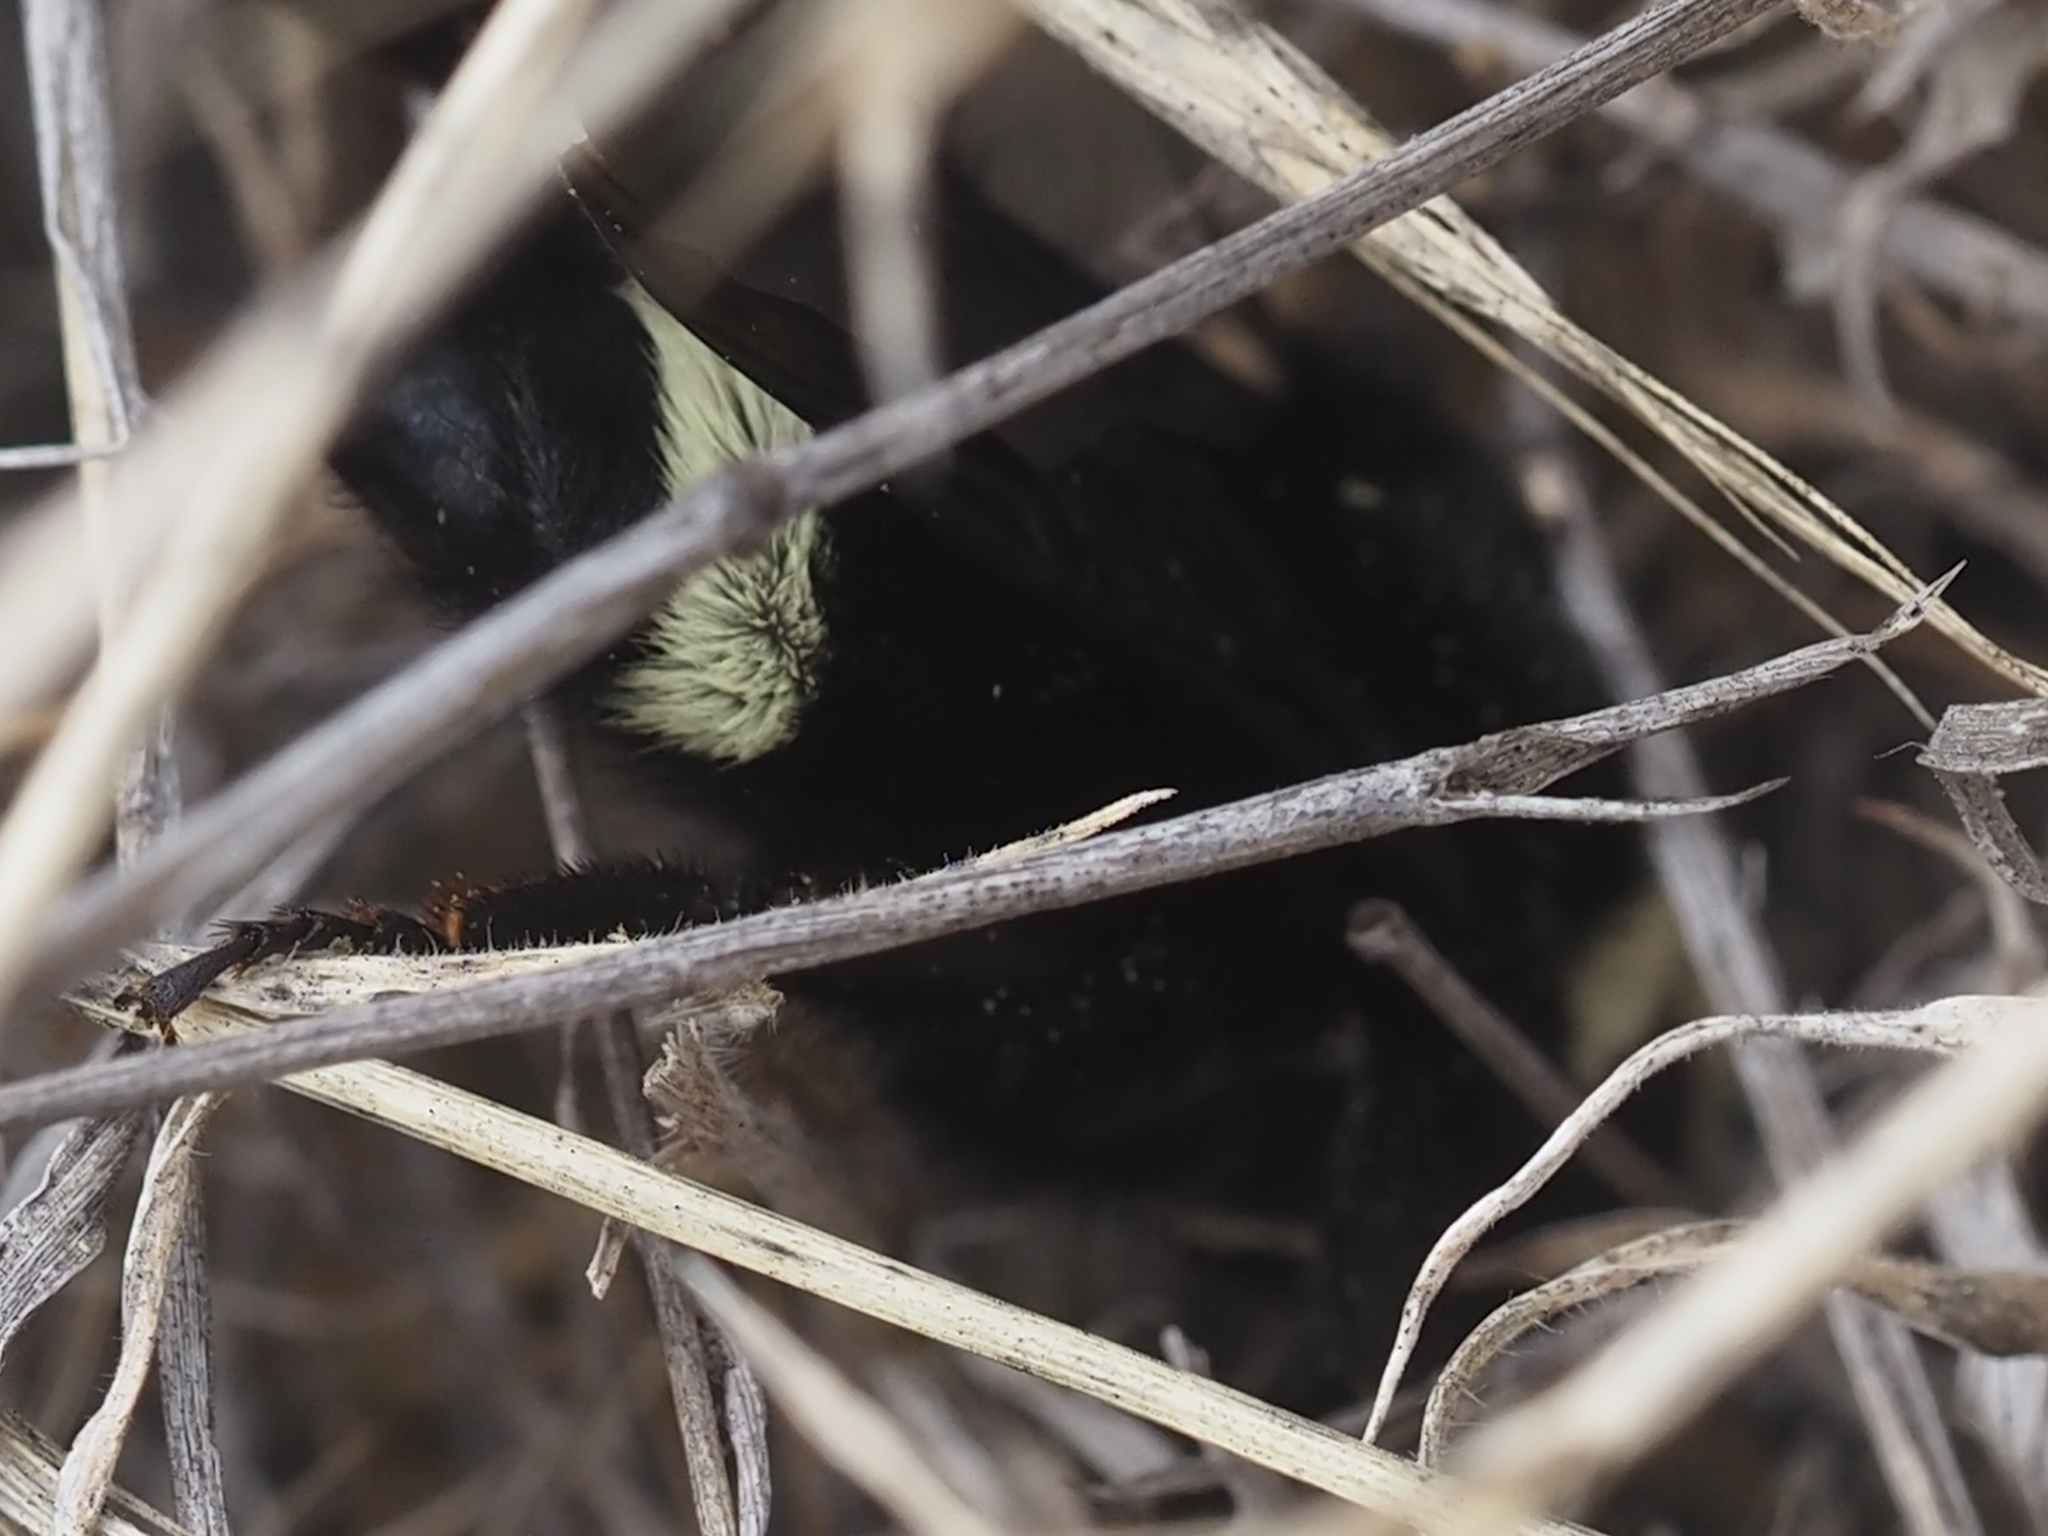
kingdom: Animalia
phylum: Arthropoda
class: Insecta
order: Hymenoptera
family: Apidae
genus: Bombus
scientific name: Bombus vosnesenskii
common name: Vosnesensky bumble bee
